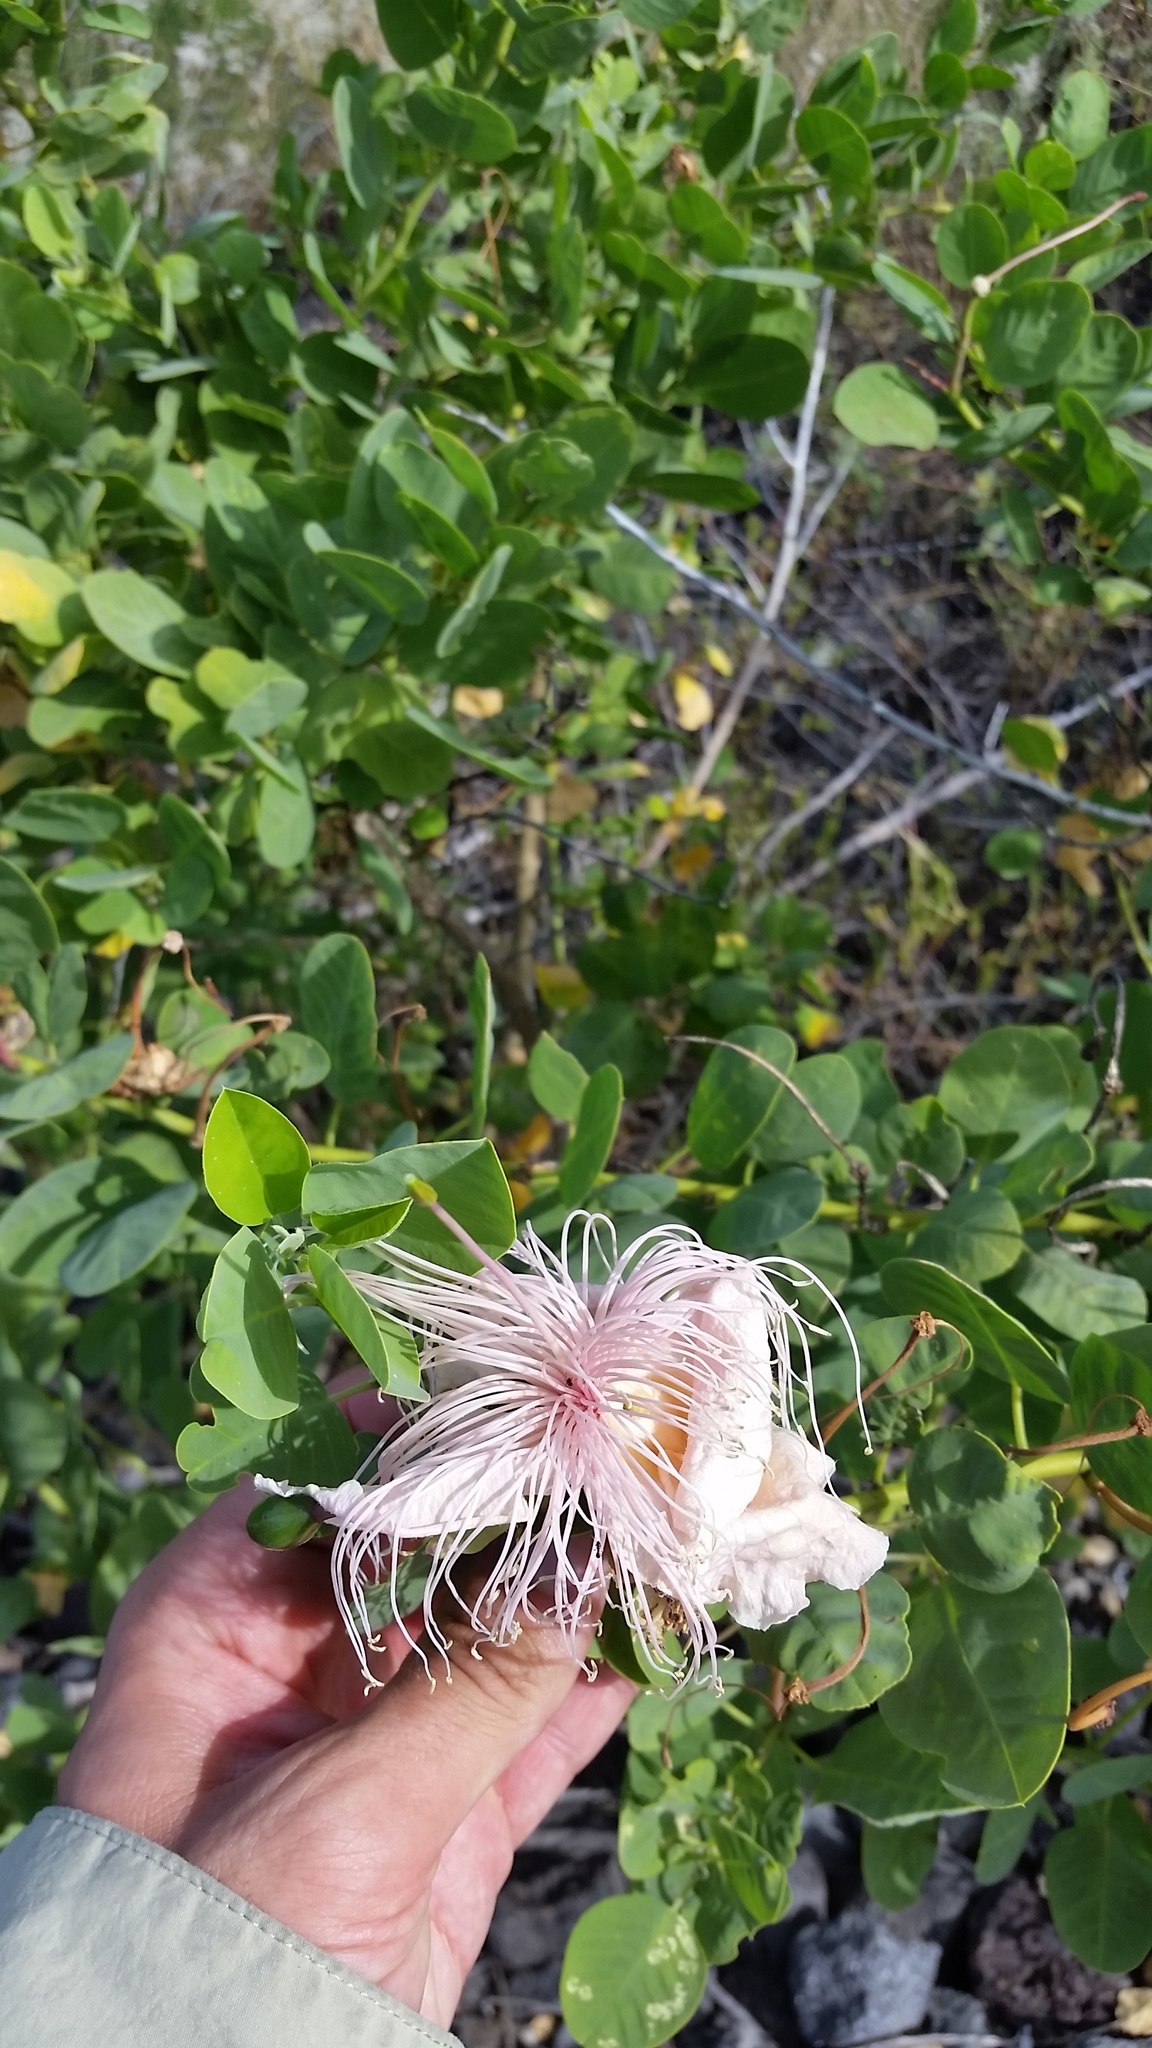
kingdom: Plantae
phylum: Tracheophyta
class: Magnoliopsida
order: Brassicales
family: Capparaceae
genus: Capparis
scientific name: Capparis spinosa
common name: Caper
